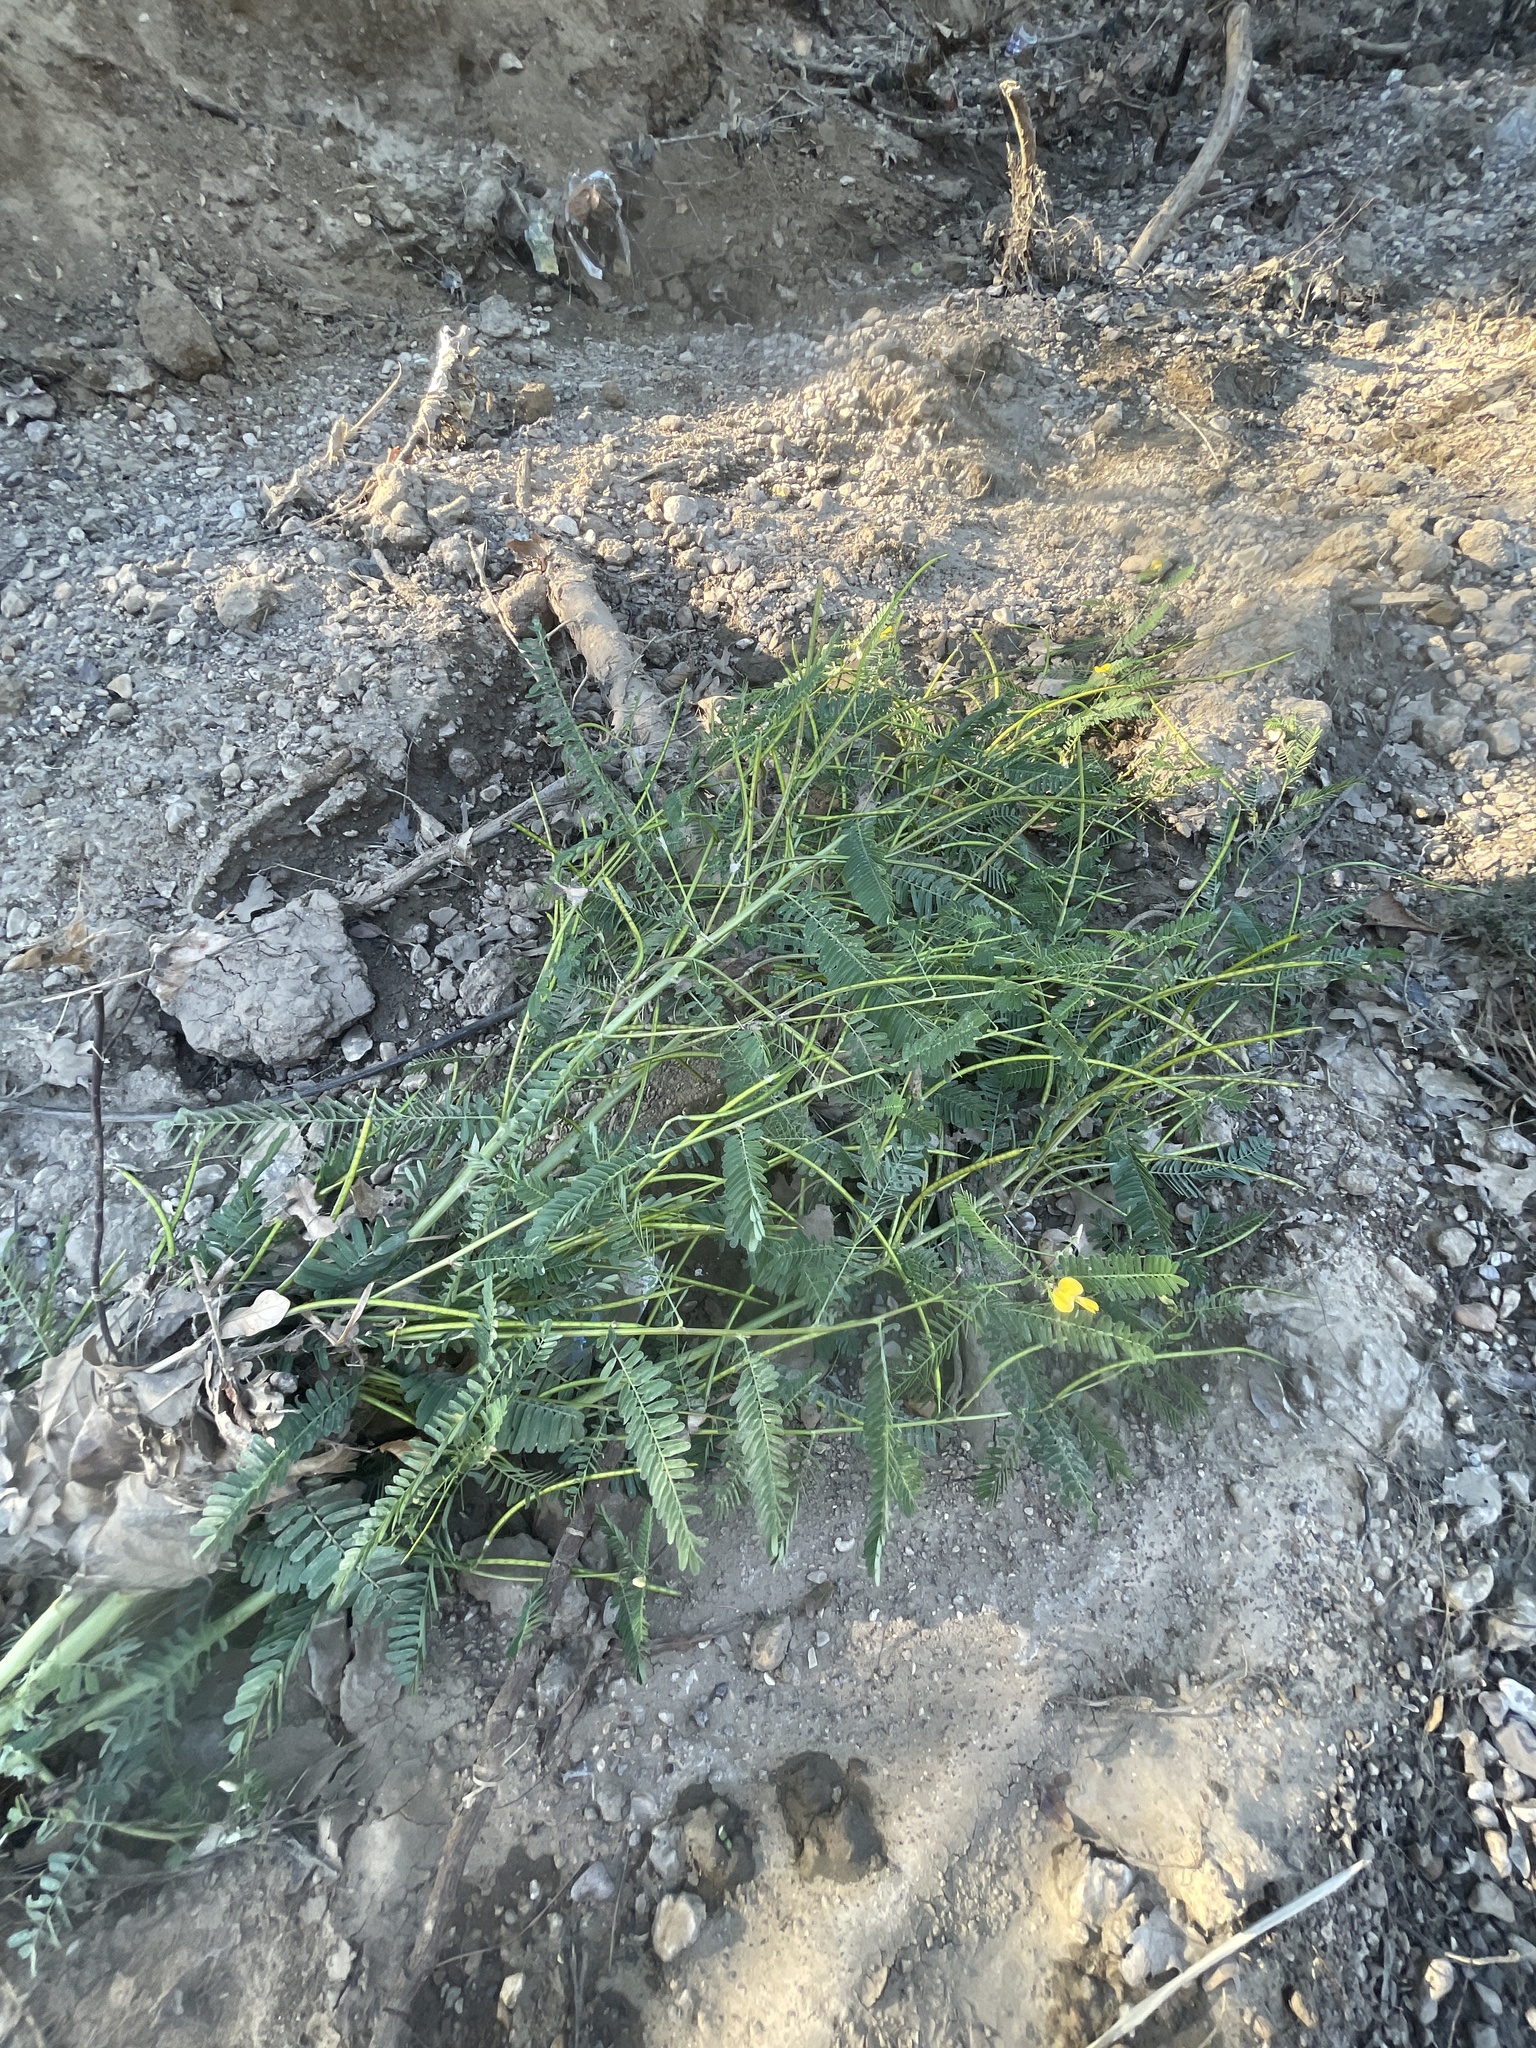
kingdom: Plantae
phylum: Tracheophyta
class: Magnoliopsida
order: Fabales
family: Fabaceae
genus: Sesbania
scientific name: Sesbania herbacea
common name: Bigpod sesbania
